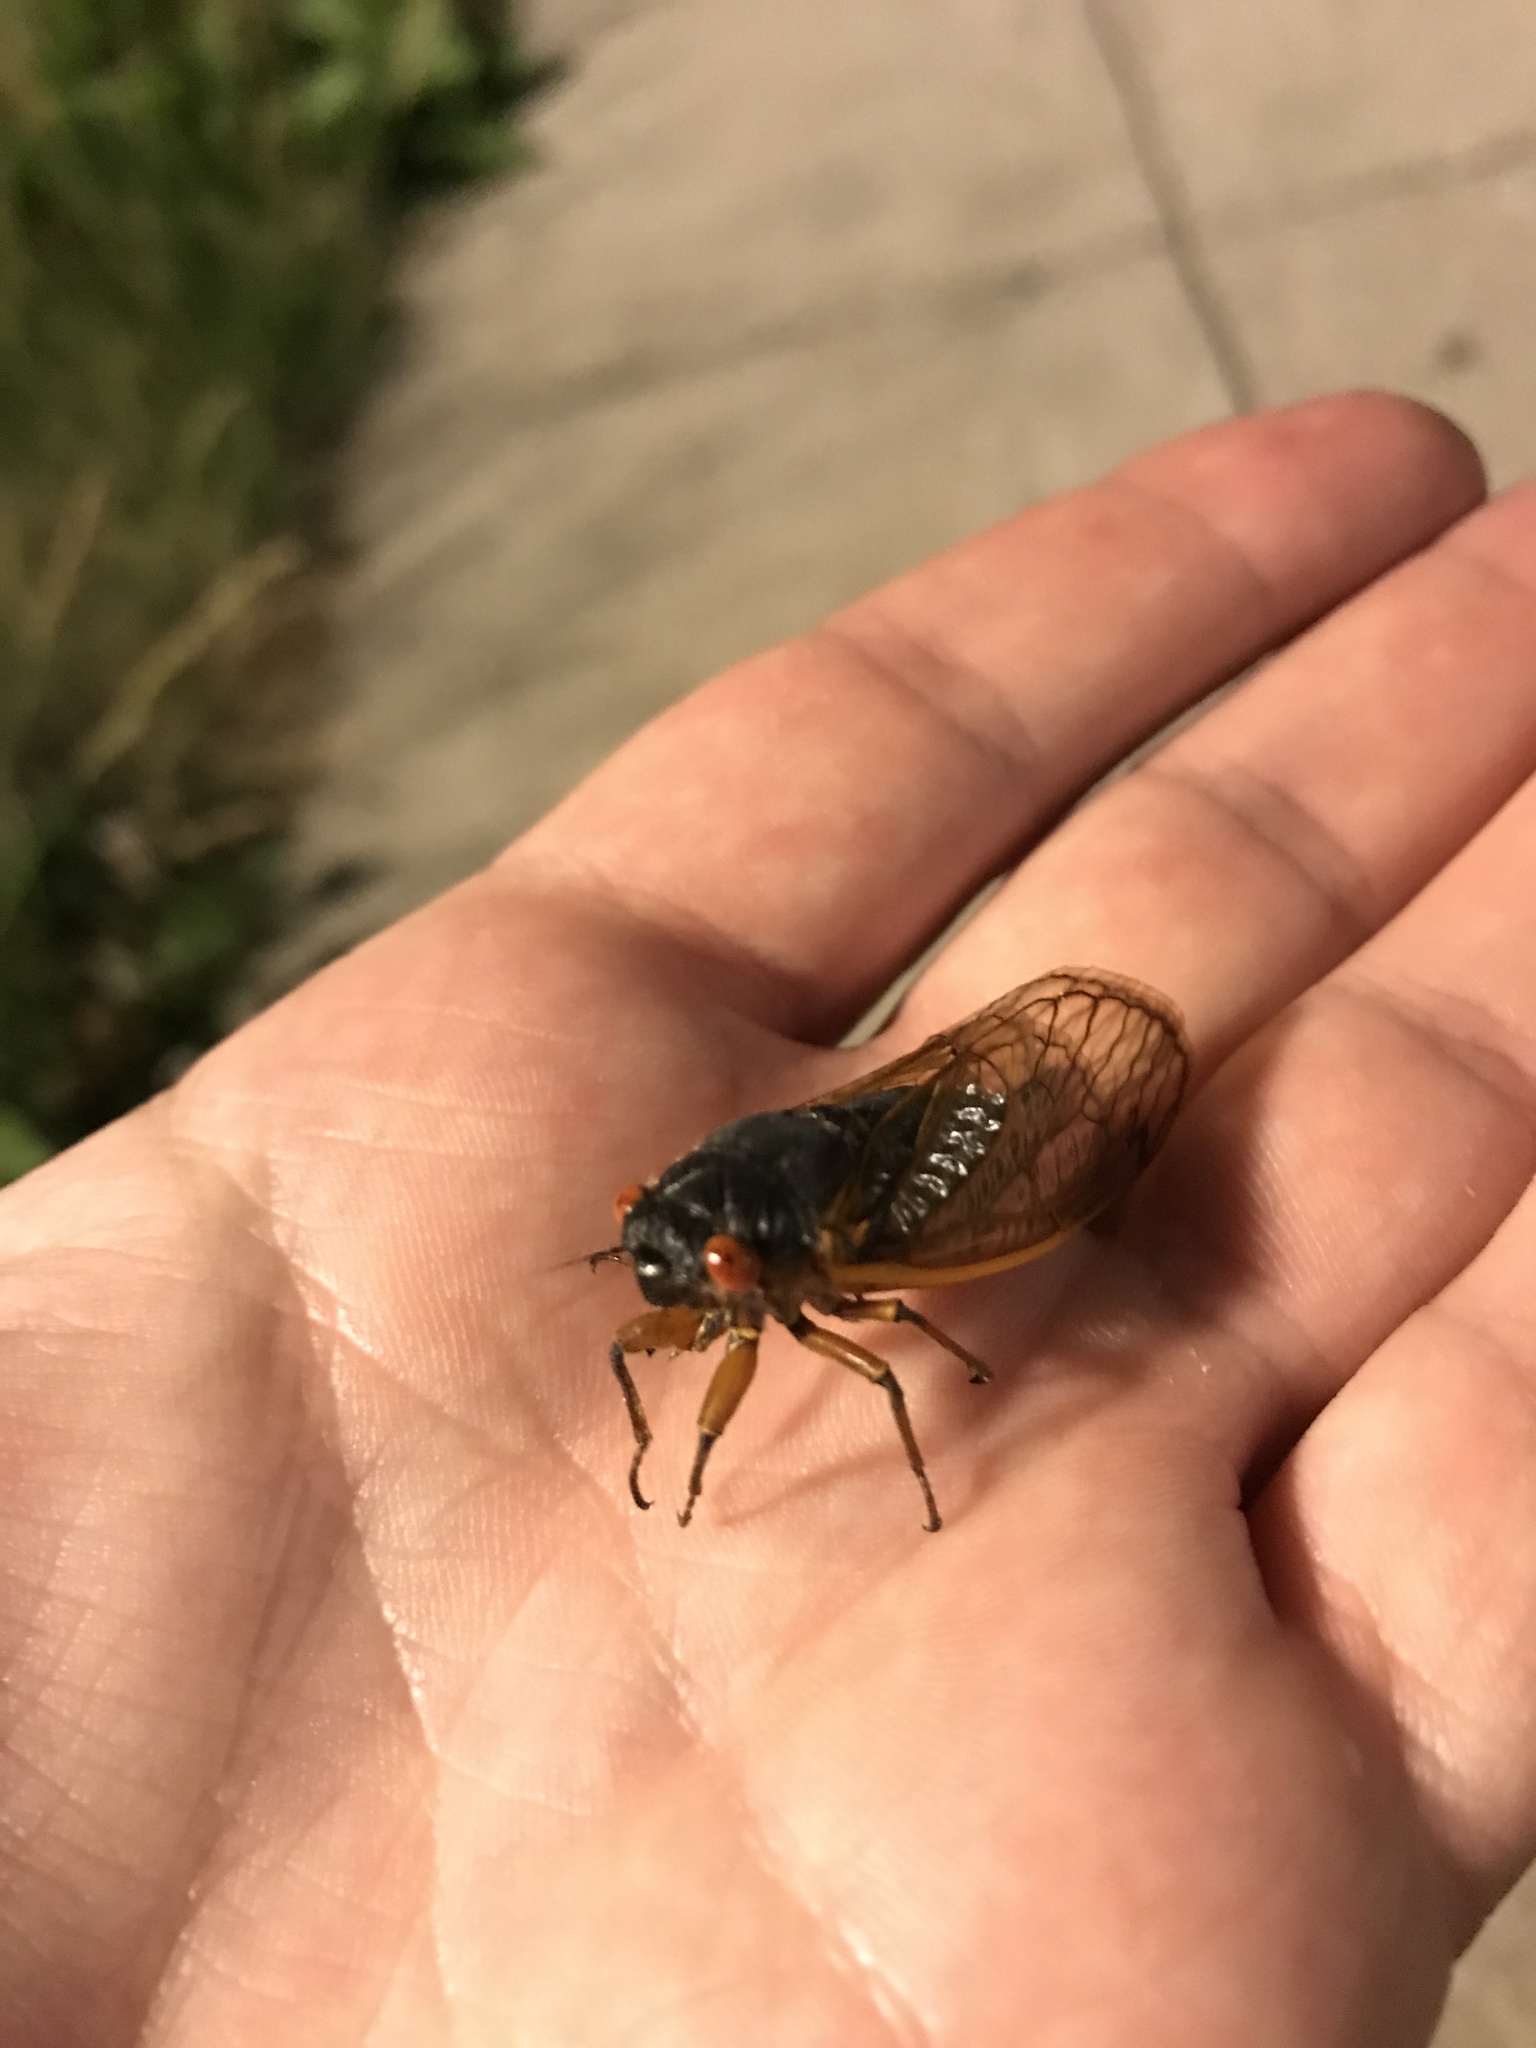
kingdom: Animalia
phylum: Arthropoda
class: Insecta
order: Hemiptera
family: Cicadidae
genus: Magicicada
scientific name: Magicicada septendecim
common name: Periodical cicada
